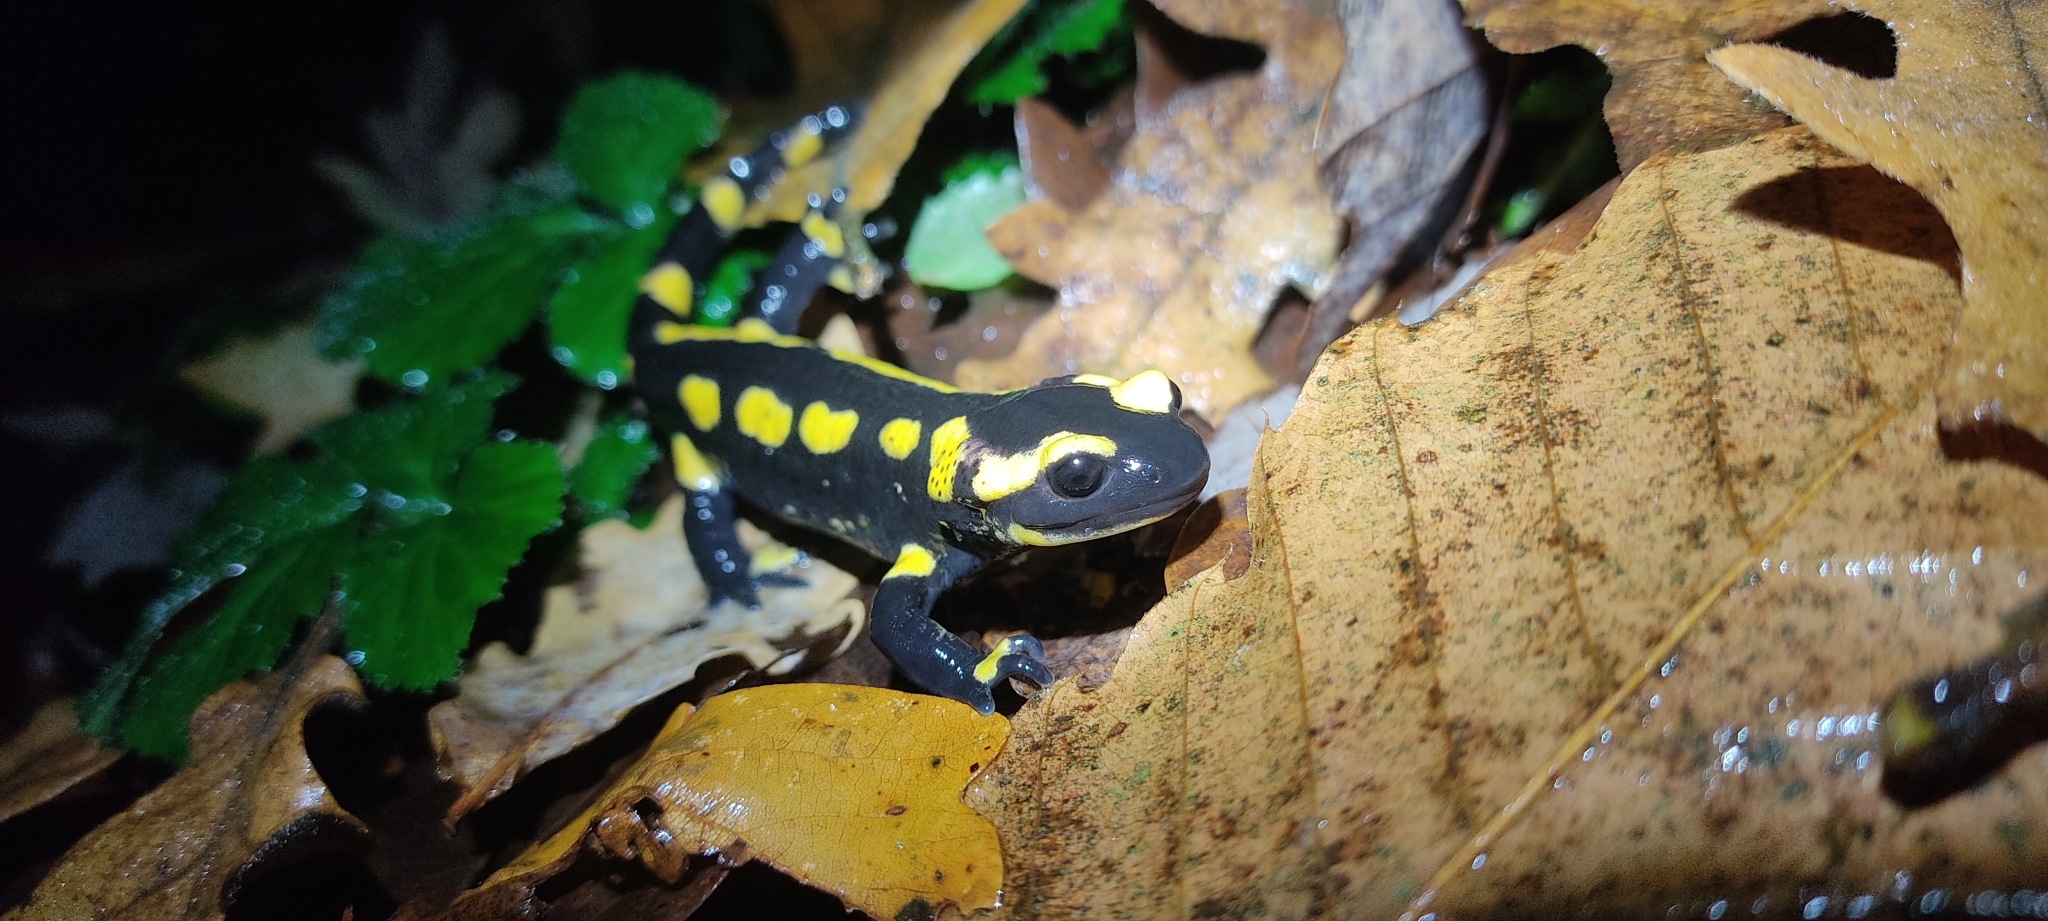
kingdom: Animalia
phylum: Chordata
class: Amphibia
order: Caudata
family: Salamandridae
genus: Salamandra
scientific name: Salamandra salamandra
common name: Fire salamander
